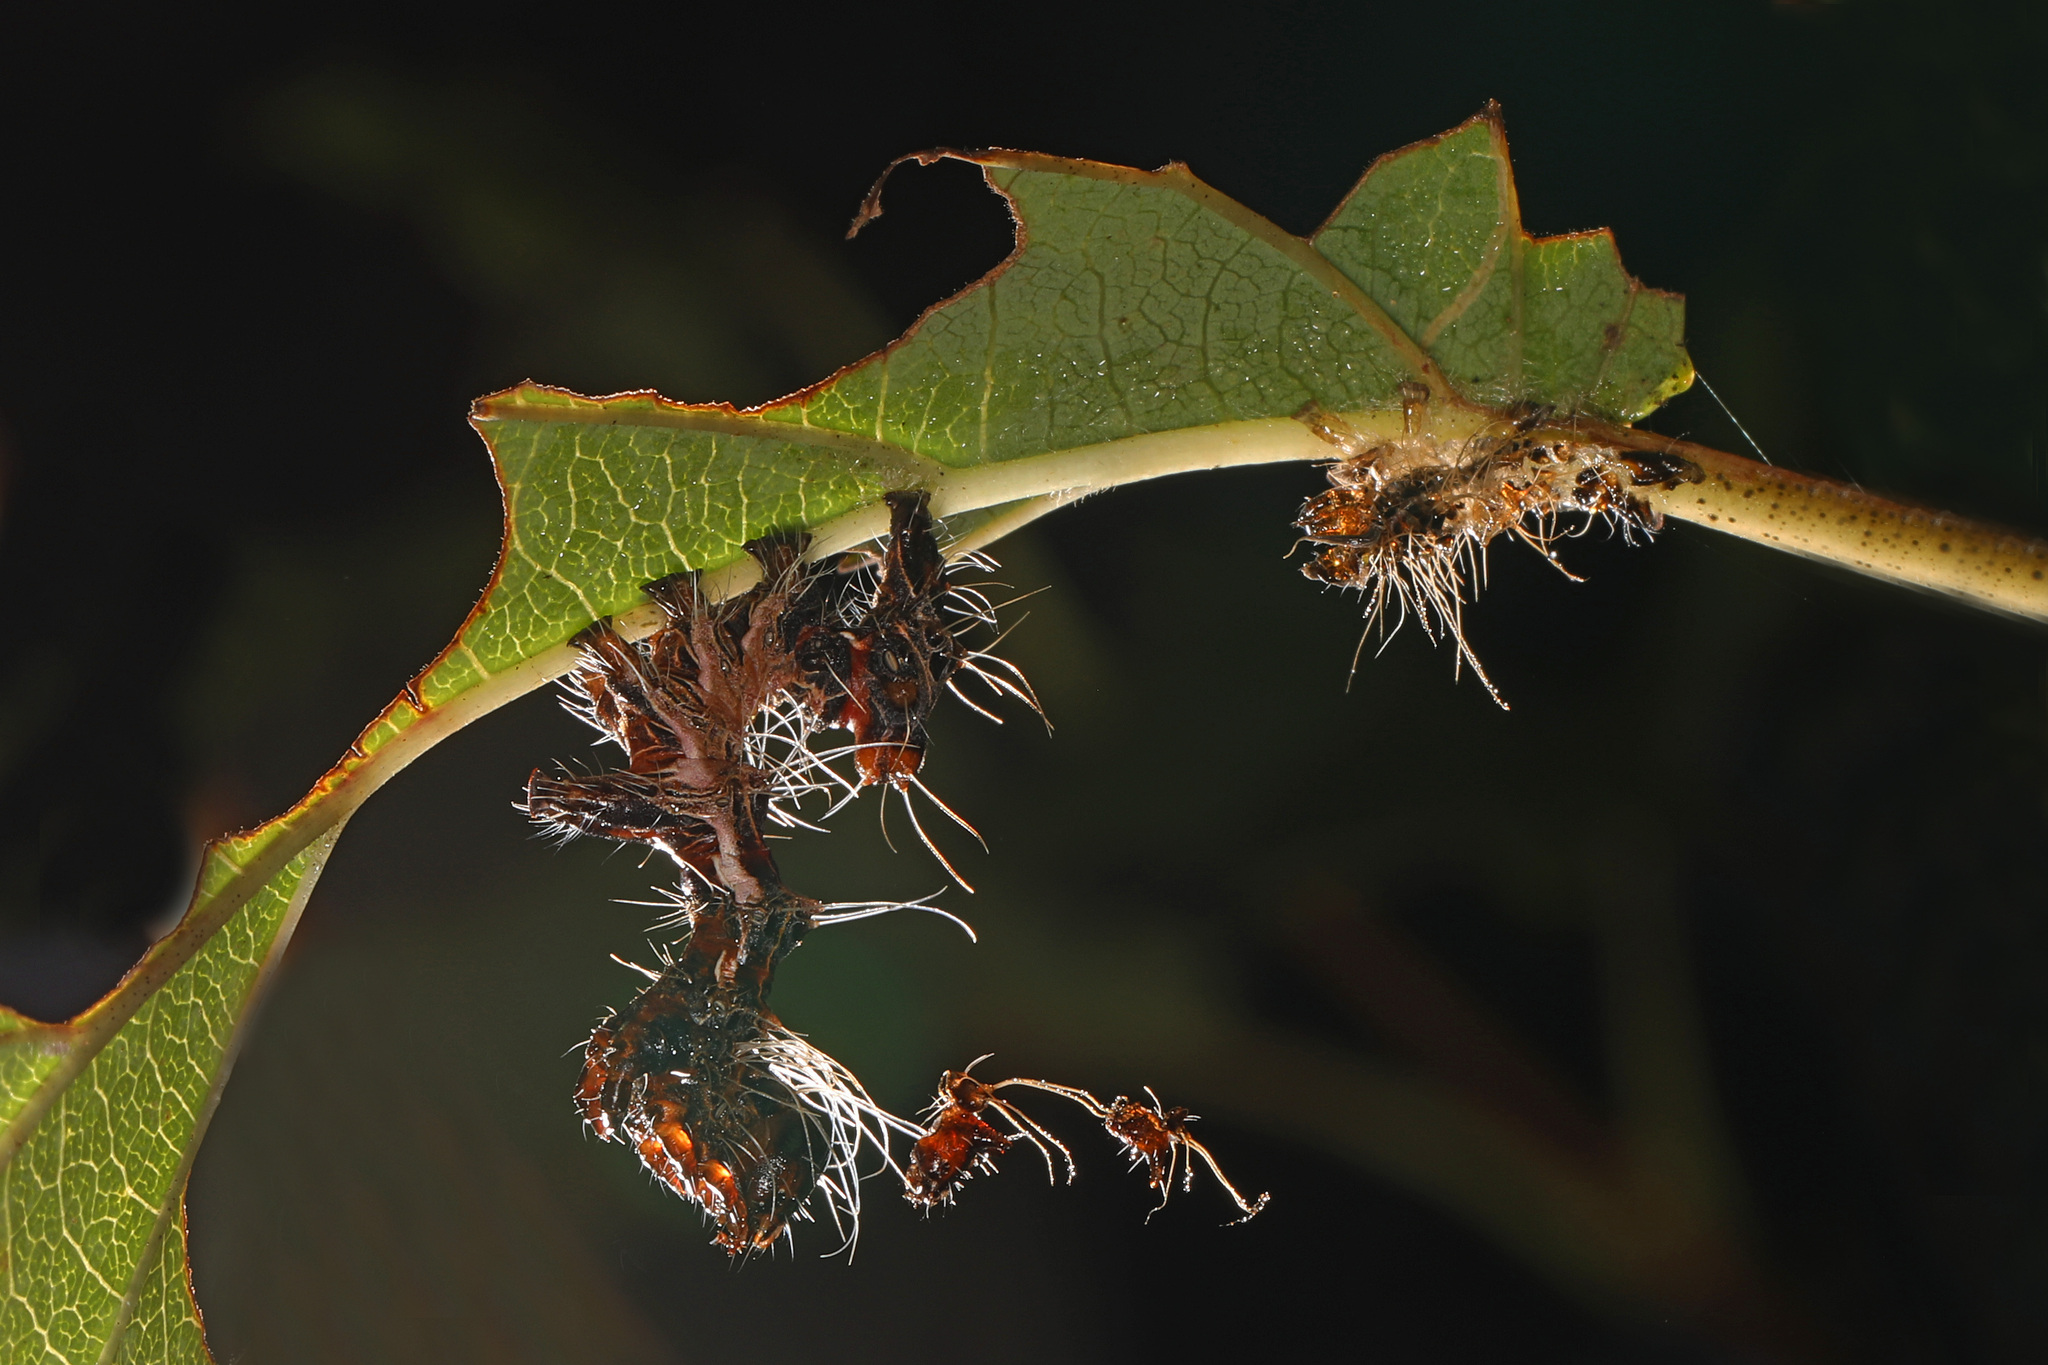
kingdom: Animalia
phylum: Arthropoda
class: Insecta
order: Lepidoptera
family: Noctuidae
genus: Harrisimemna
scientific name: Harrisimemna trisignata
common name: Harris threespot
